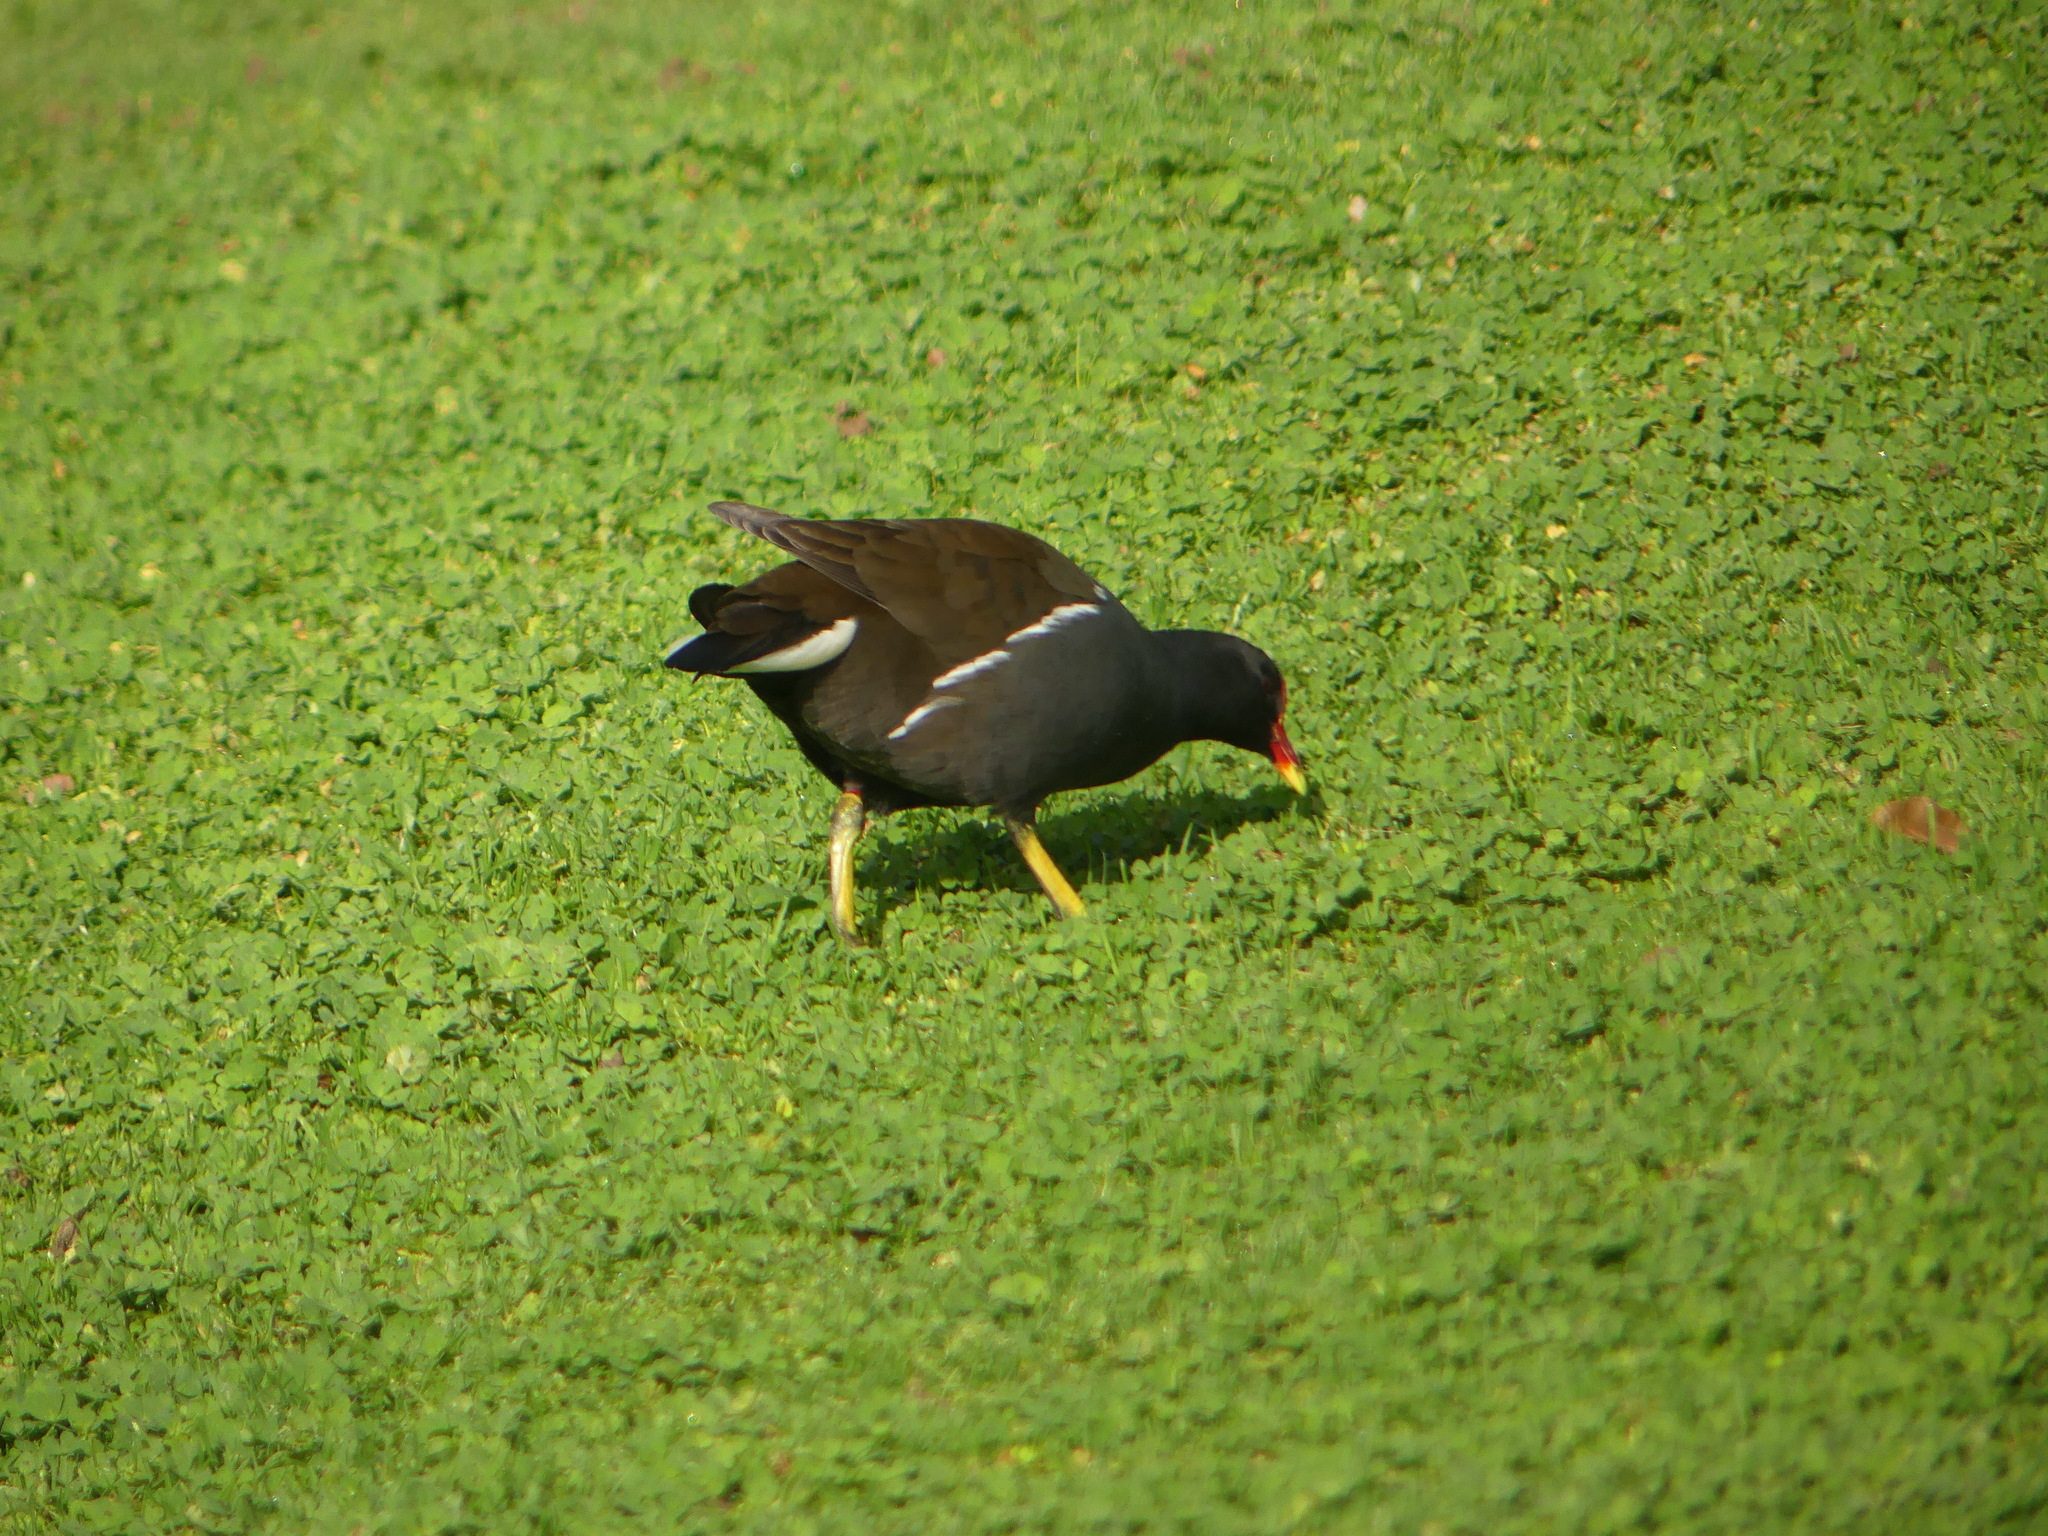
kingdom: Animalia
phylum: Chordata
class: Aves
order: Gruiformes
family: Rallidae
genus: Gallinula
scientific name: Gallinula chloropus
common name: Common moorhen
